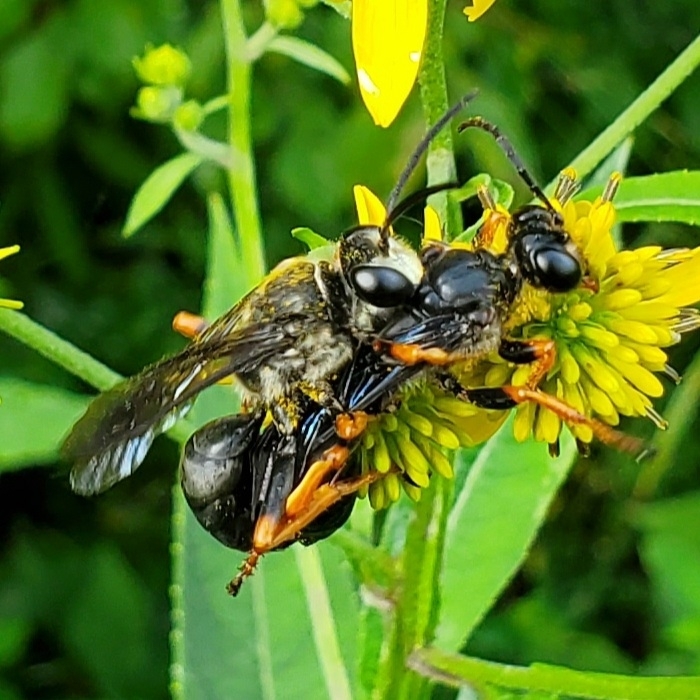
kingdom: Animalia
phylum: Arthropoda
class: Insecta
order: Hymenoptera
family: Sphecidae
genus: Sphex
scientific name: Sphex nudus
